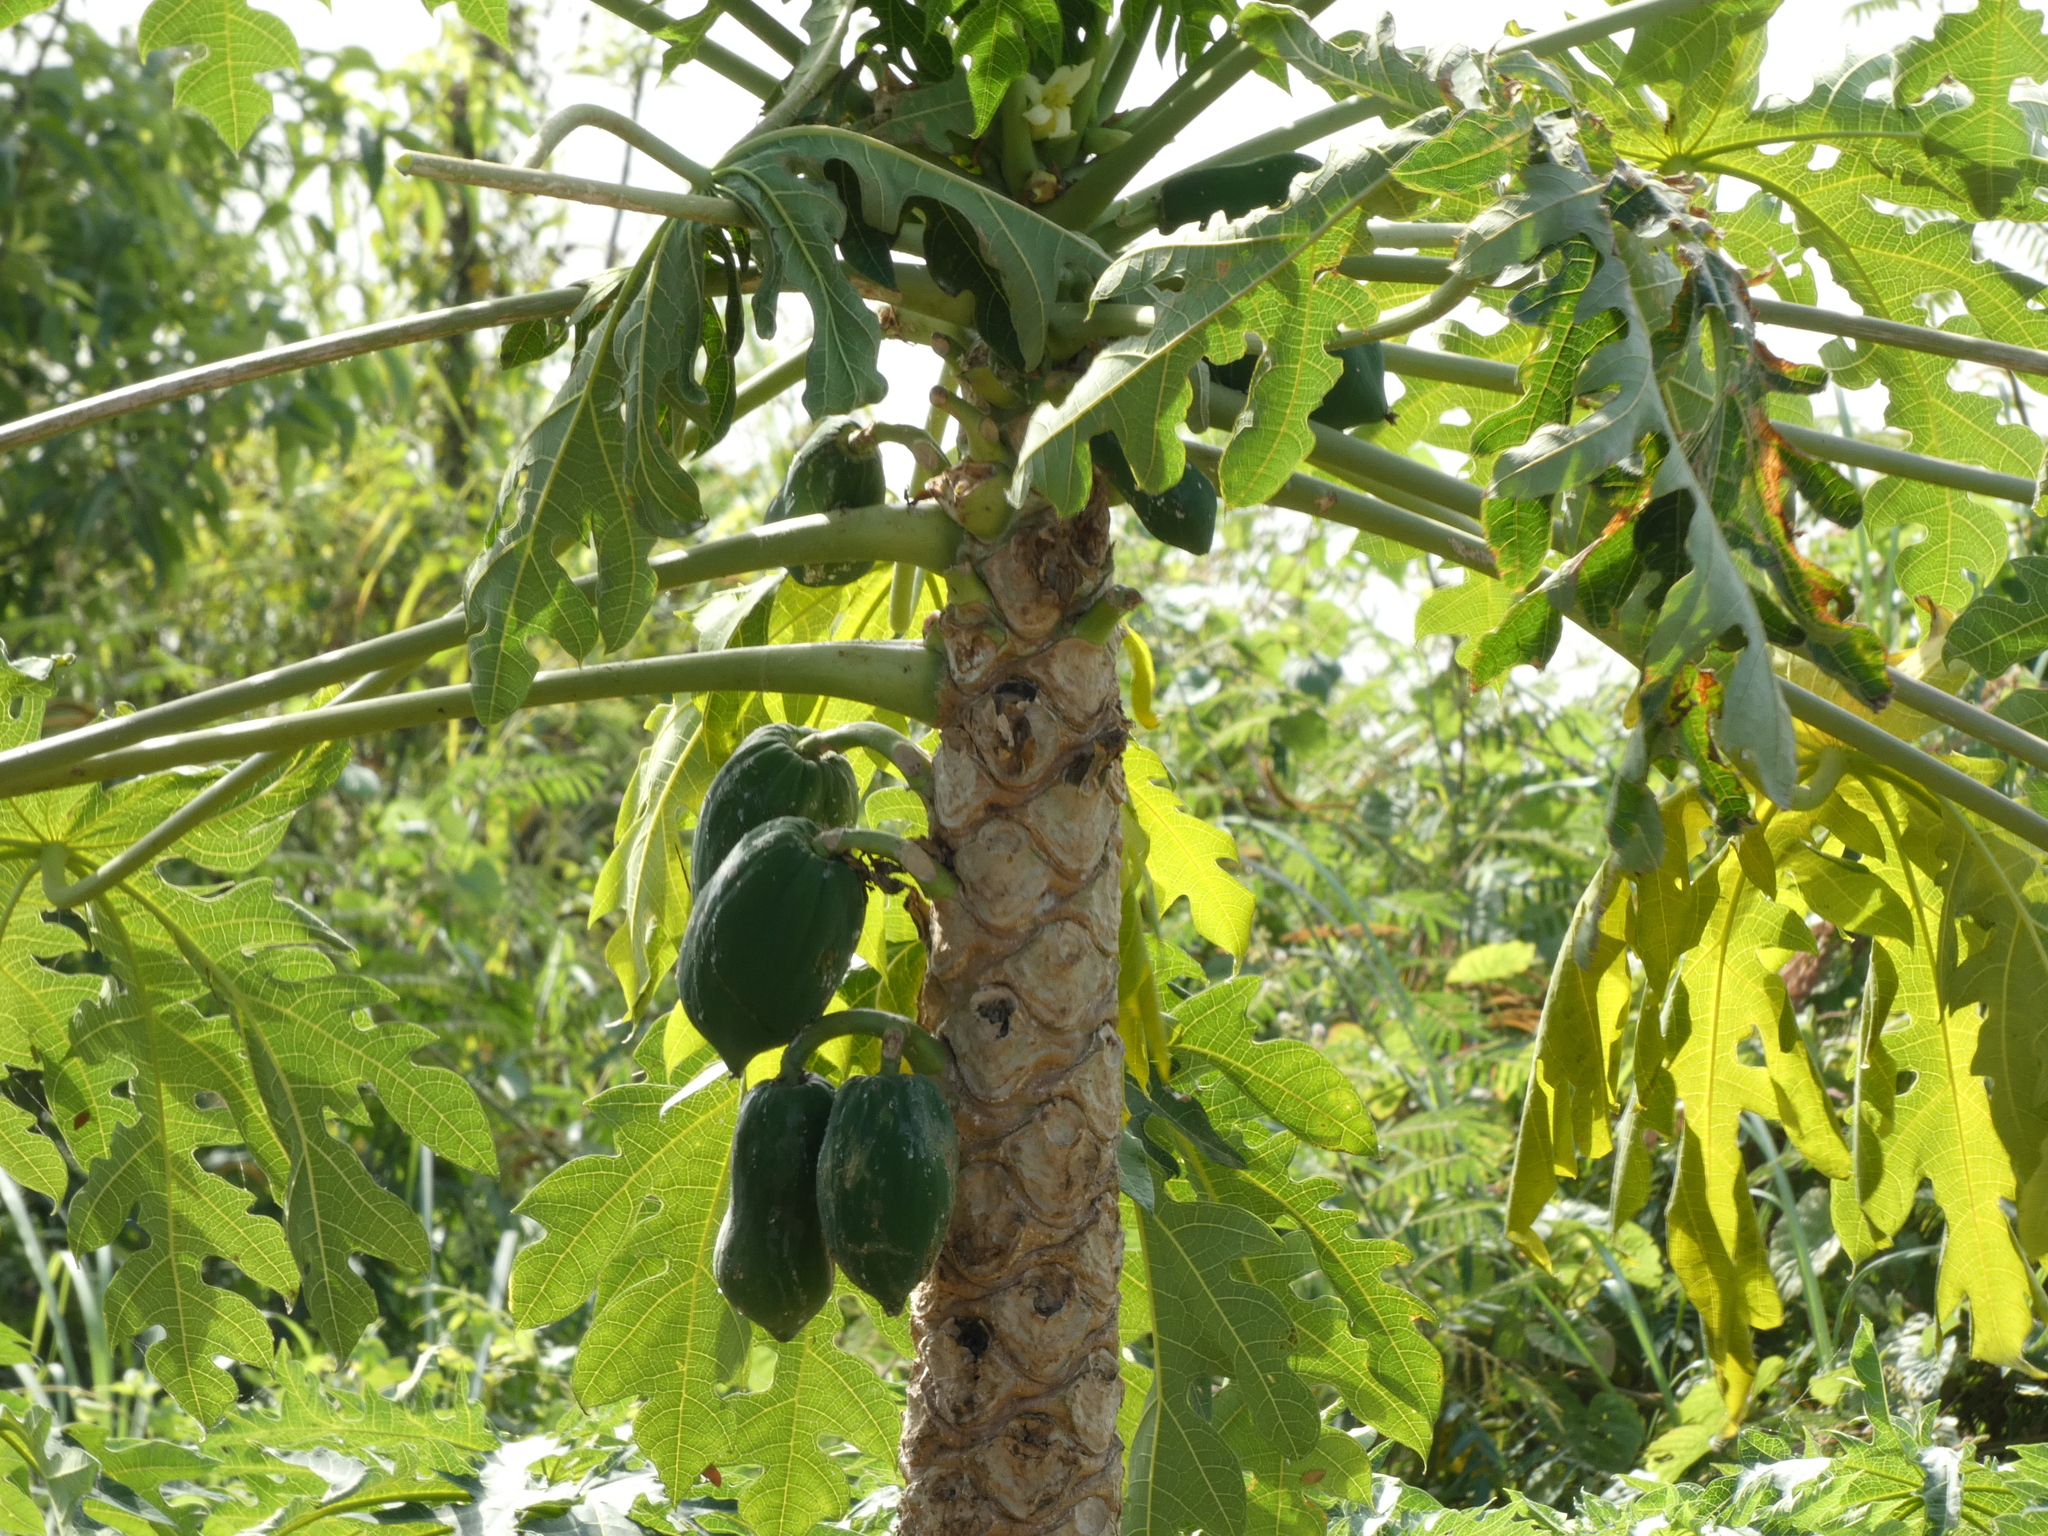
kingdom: Plantae
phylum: Tracheophyta
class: Magnoliopsida
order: Brassicales
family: Caricaceae
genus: Carica
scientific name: Carica papaya
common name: Papaya
